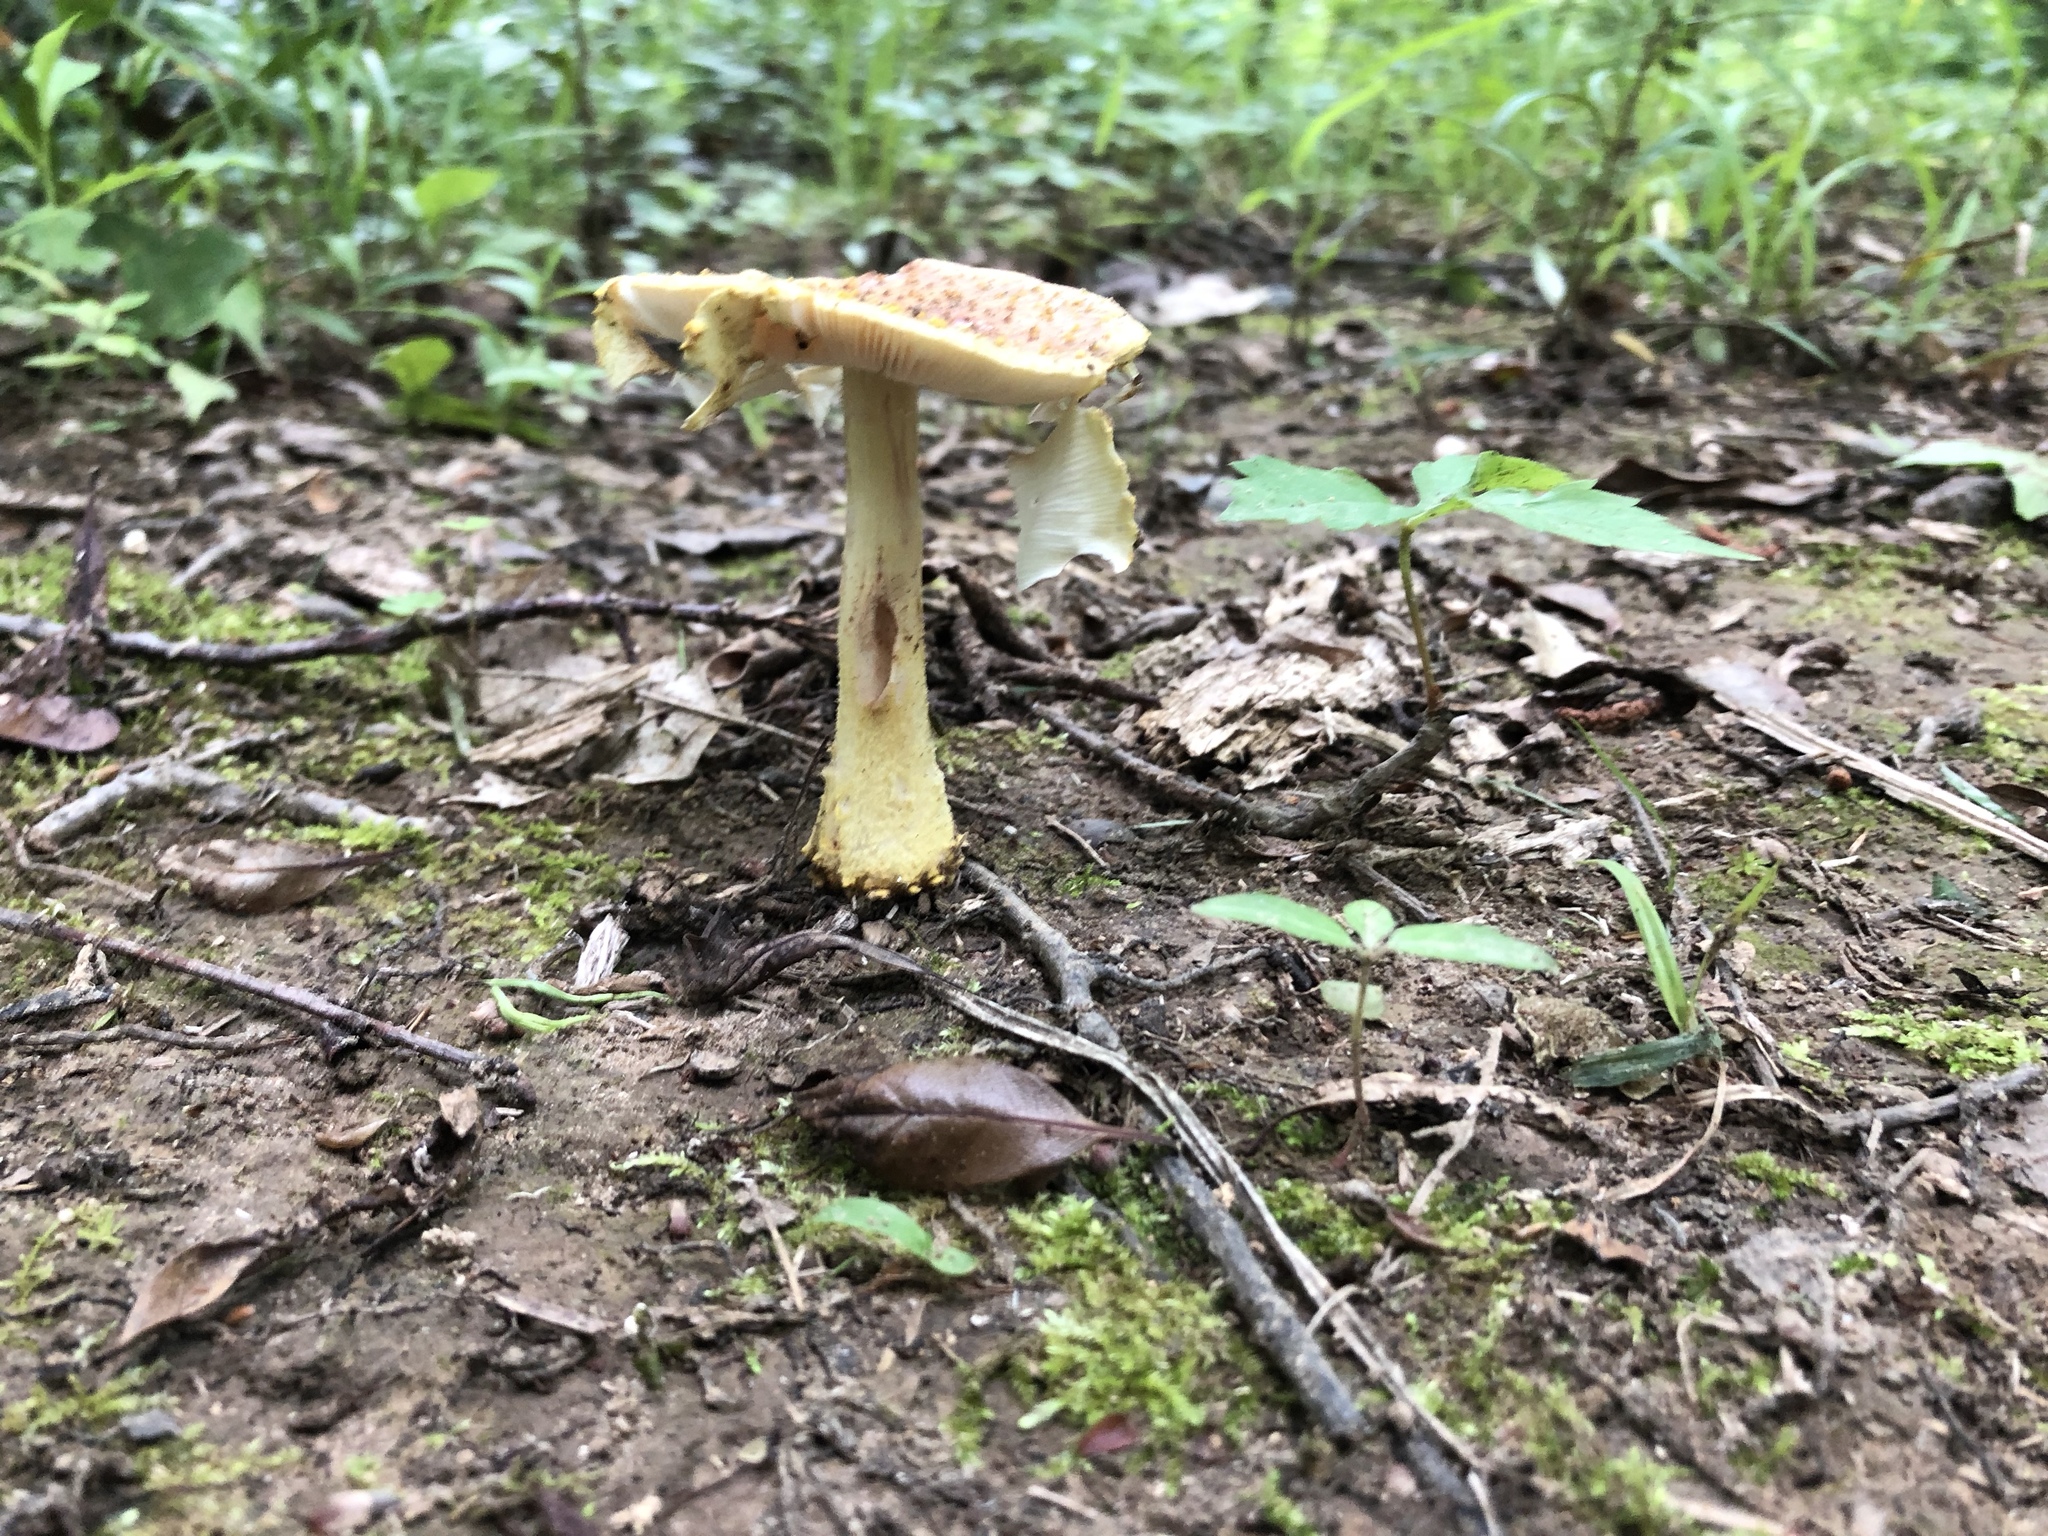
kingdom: Fungi
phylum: Basidiomycota
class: Agaricomycetes
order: Agaricales
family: Amanitaceae
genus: Amanita
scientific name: Amanita flavorubens
